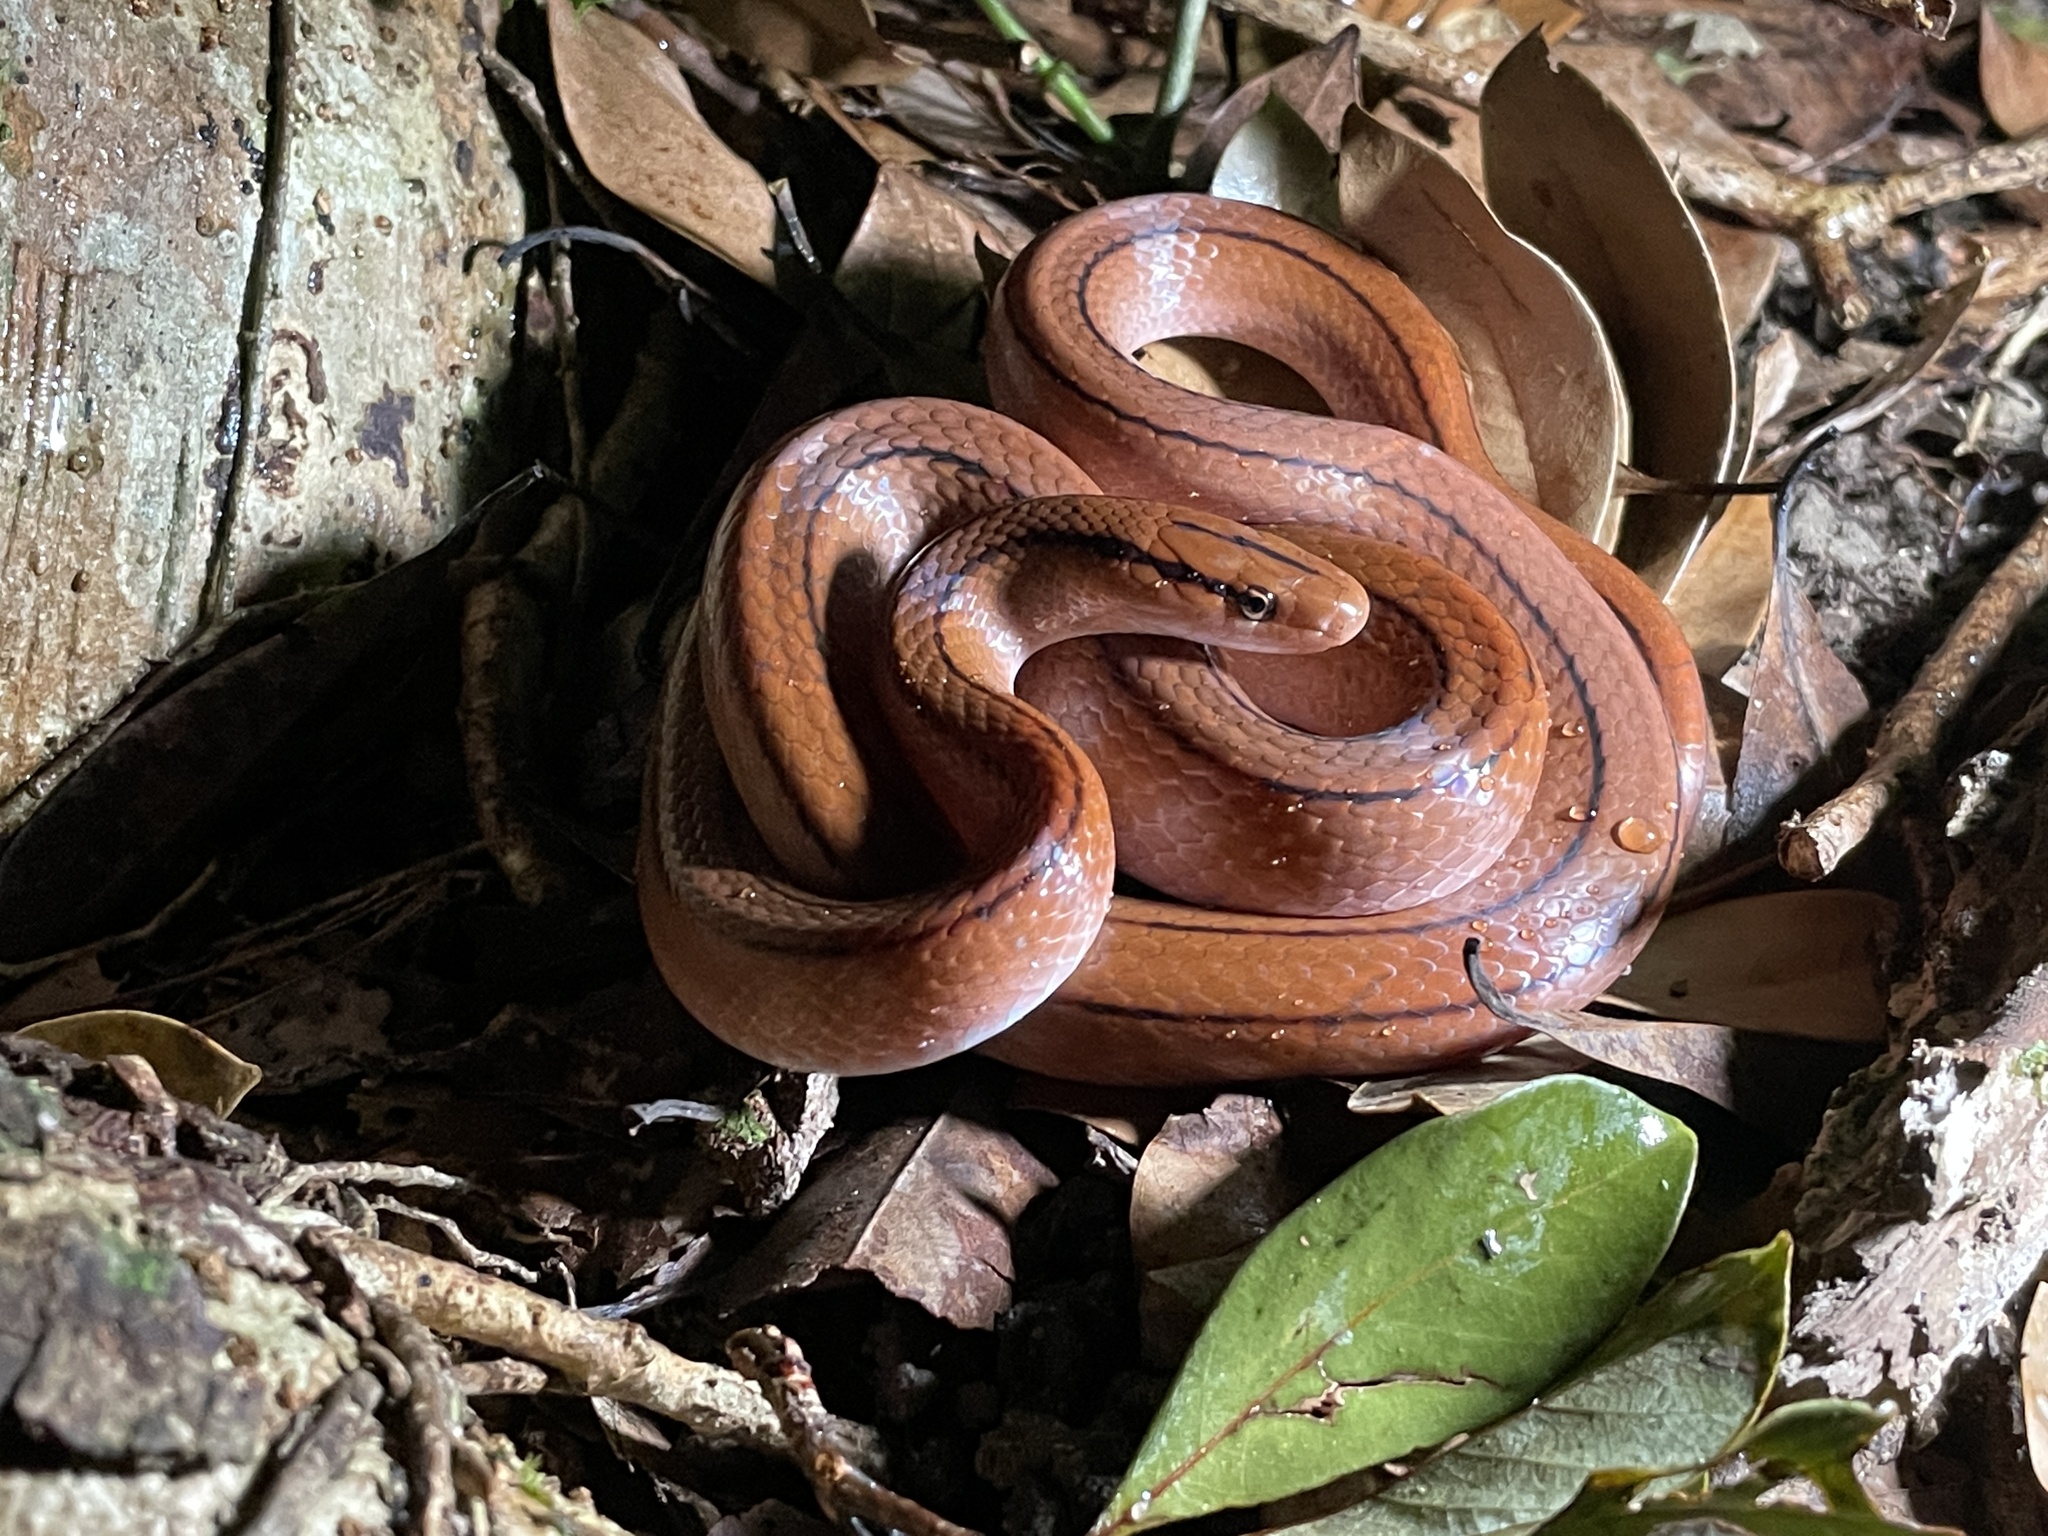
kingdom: Animalia
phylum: Chordata
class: Squamata
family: Colubridae
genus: Oreocryptophis
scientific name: Oreocryptophis porphyraceus
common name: Black-banded trinket snake
